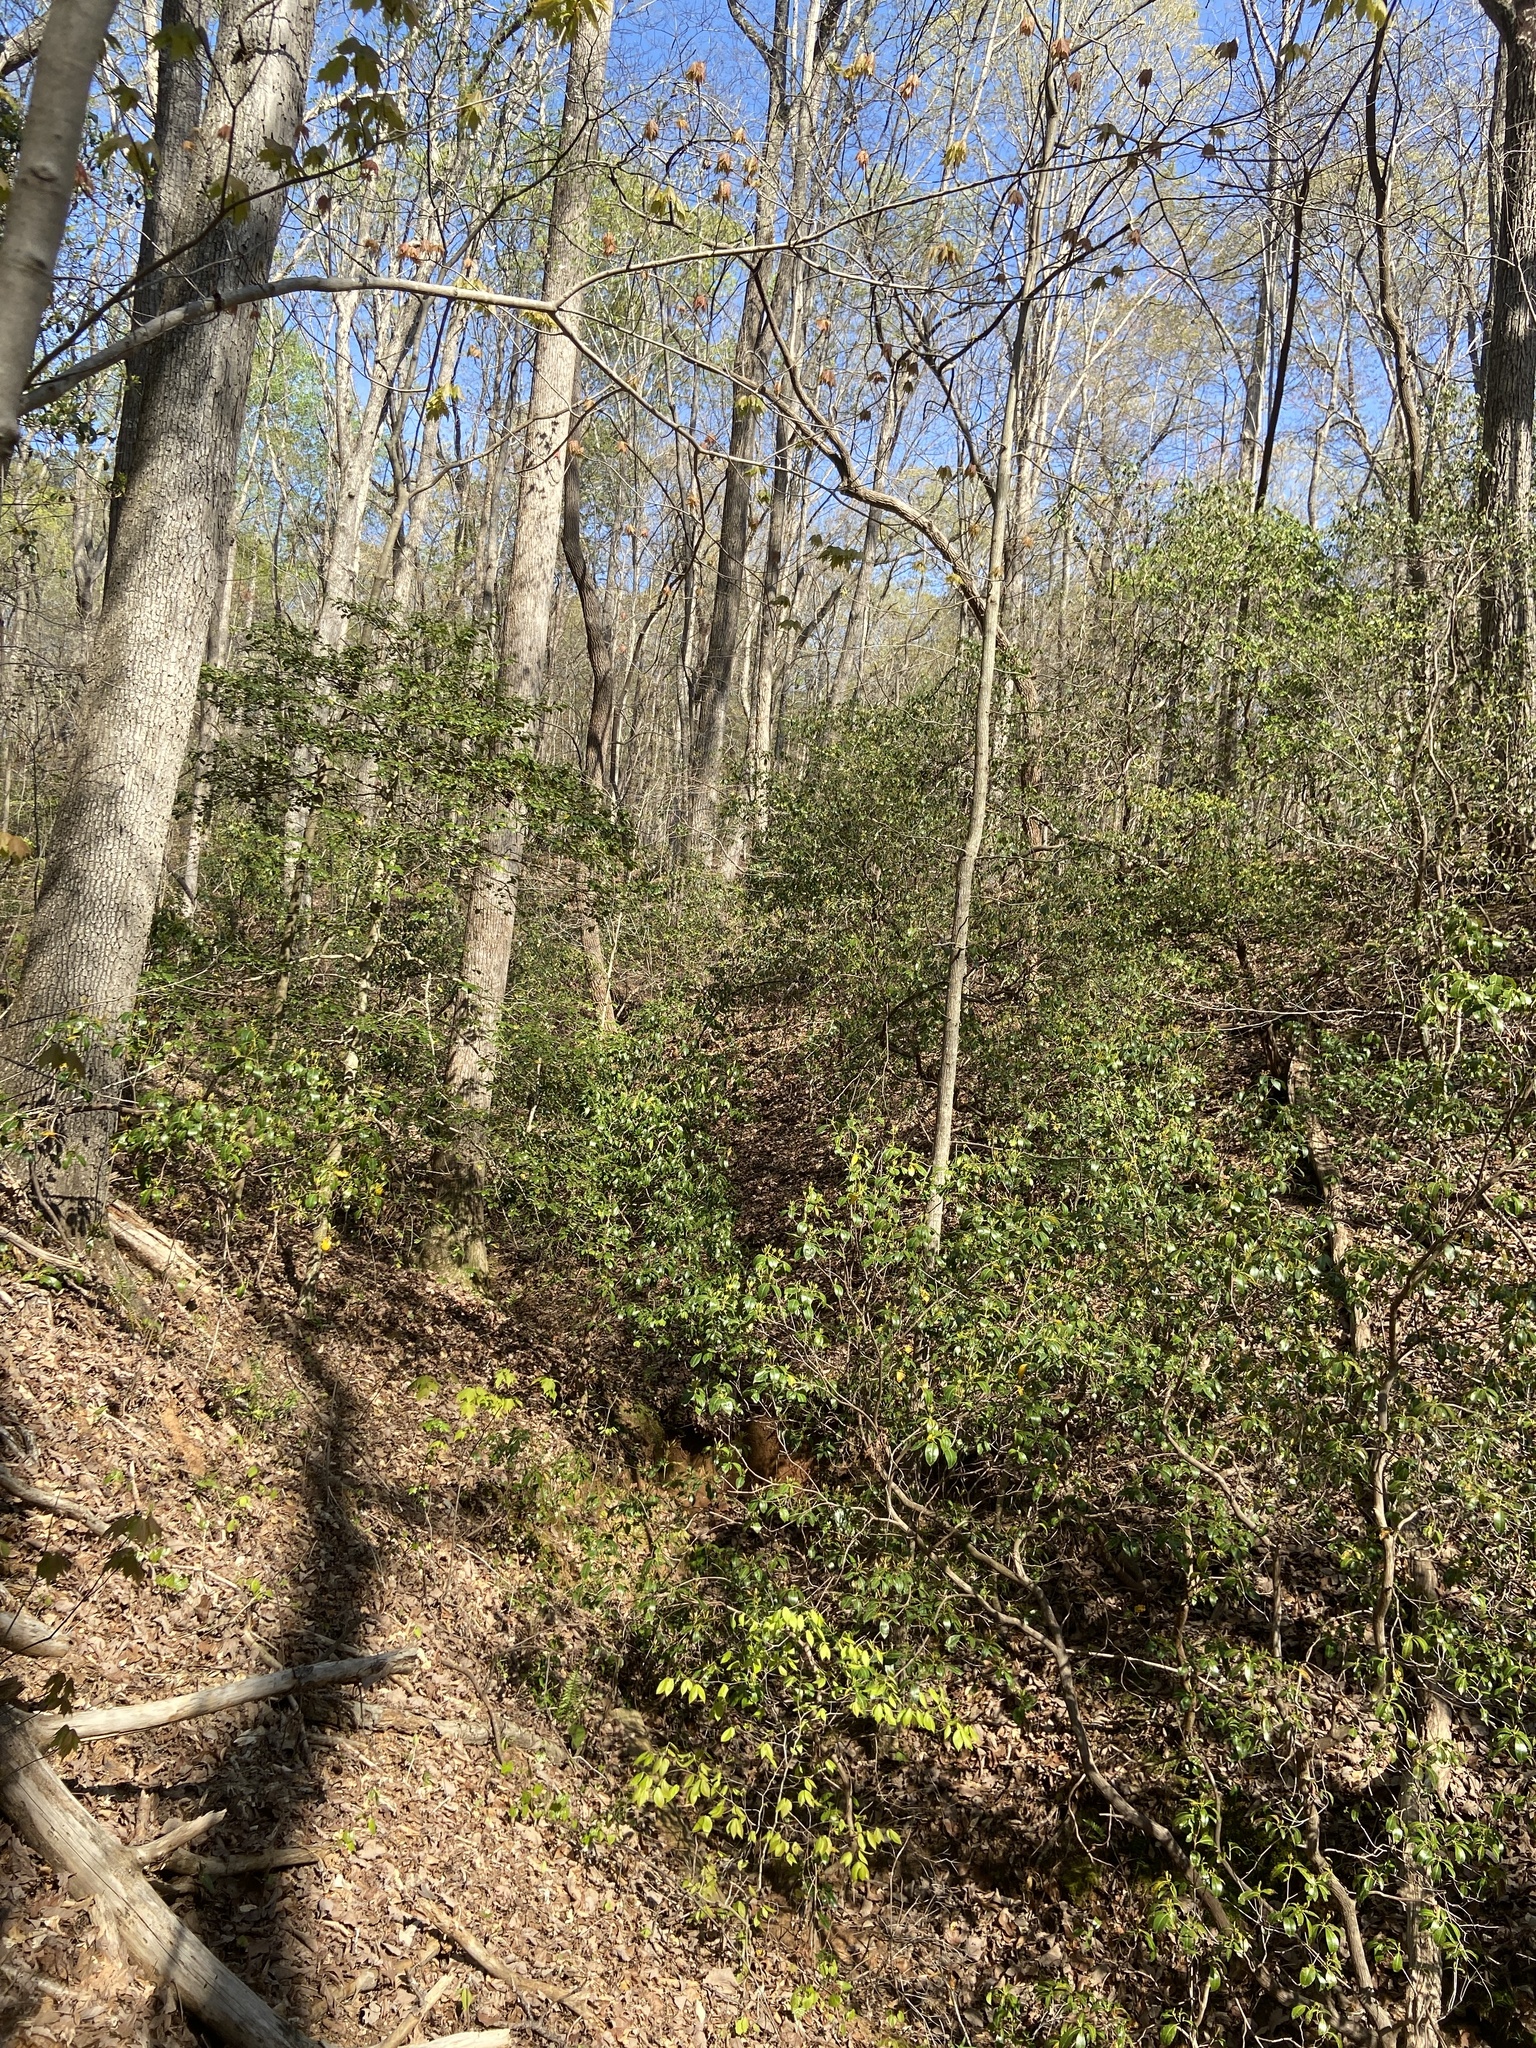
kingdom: Plantae
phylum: Tracheophyta
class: Magnoliopsida
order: Ericales
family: Ericaceae
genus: Kalmia
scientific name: Kalmia latifolia
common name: Mountain-laurel
